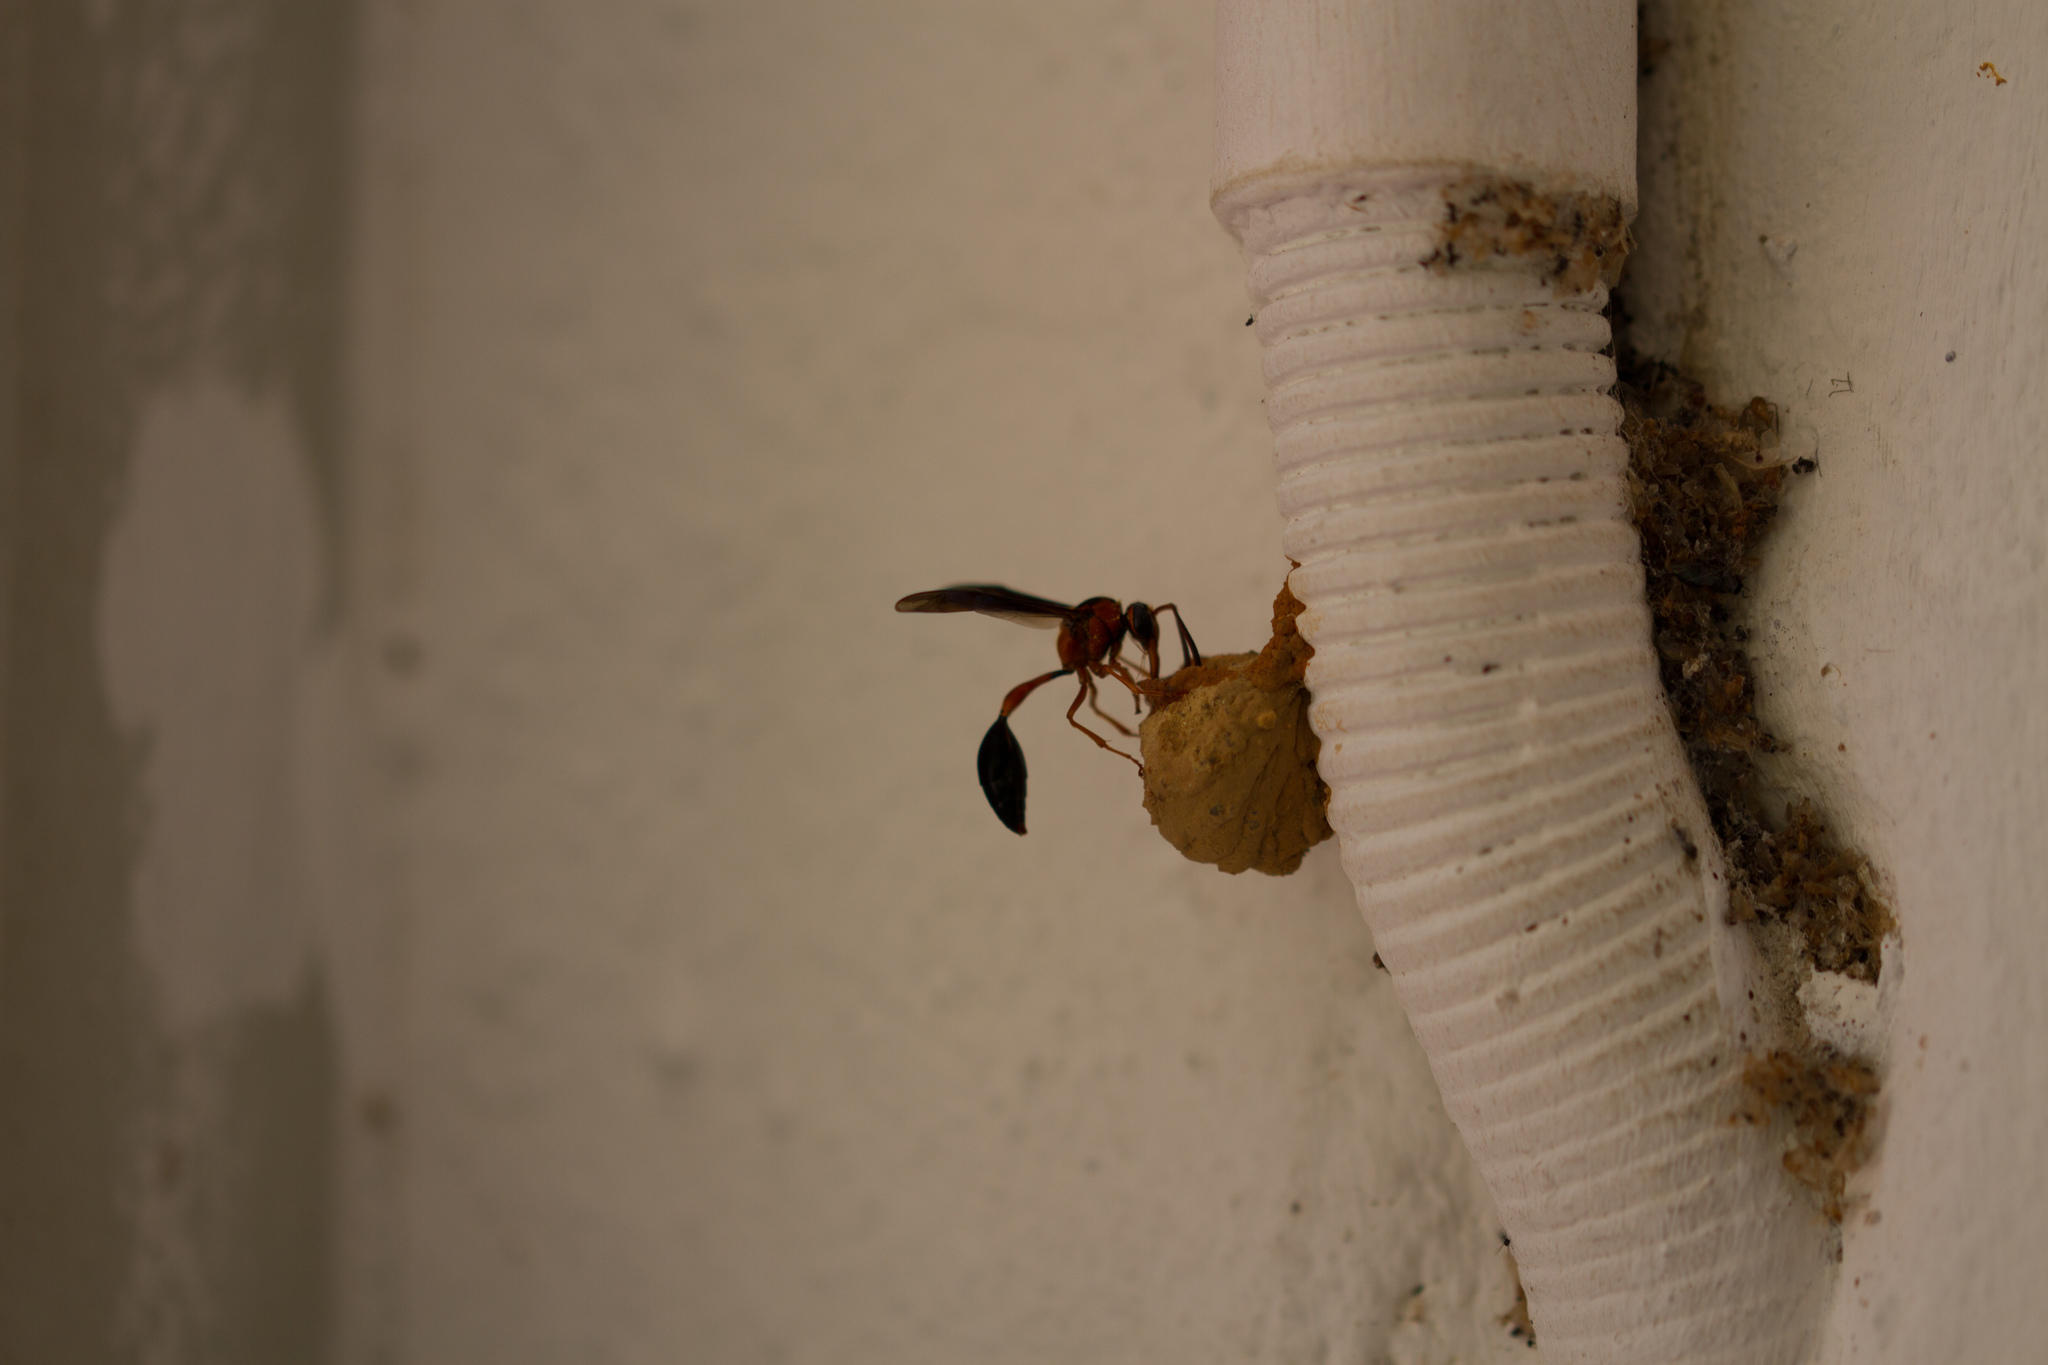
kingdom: Animalia
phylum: Arthropoda
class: Insecta
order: Hymenoptera
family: Eumenidae
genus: Delta
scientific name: Delta alluaudi
